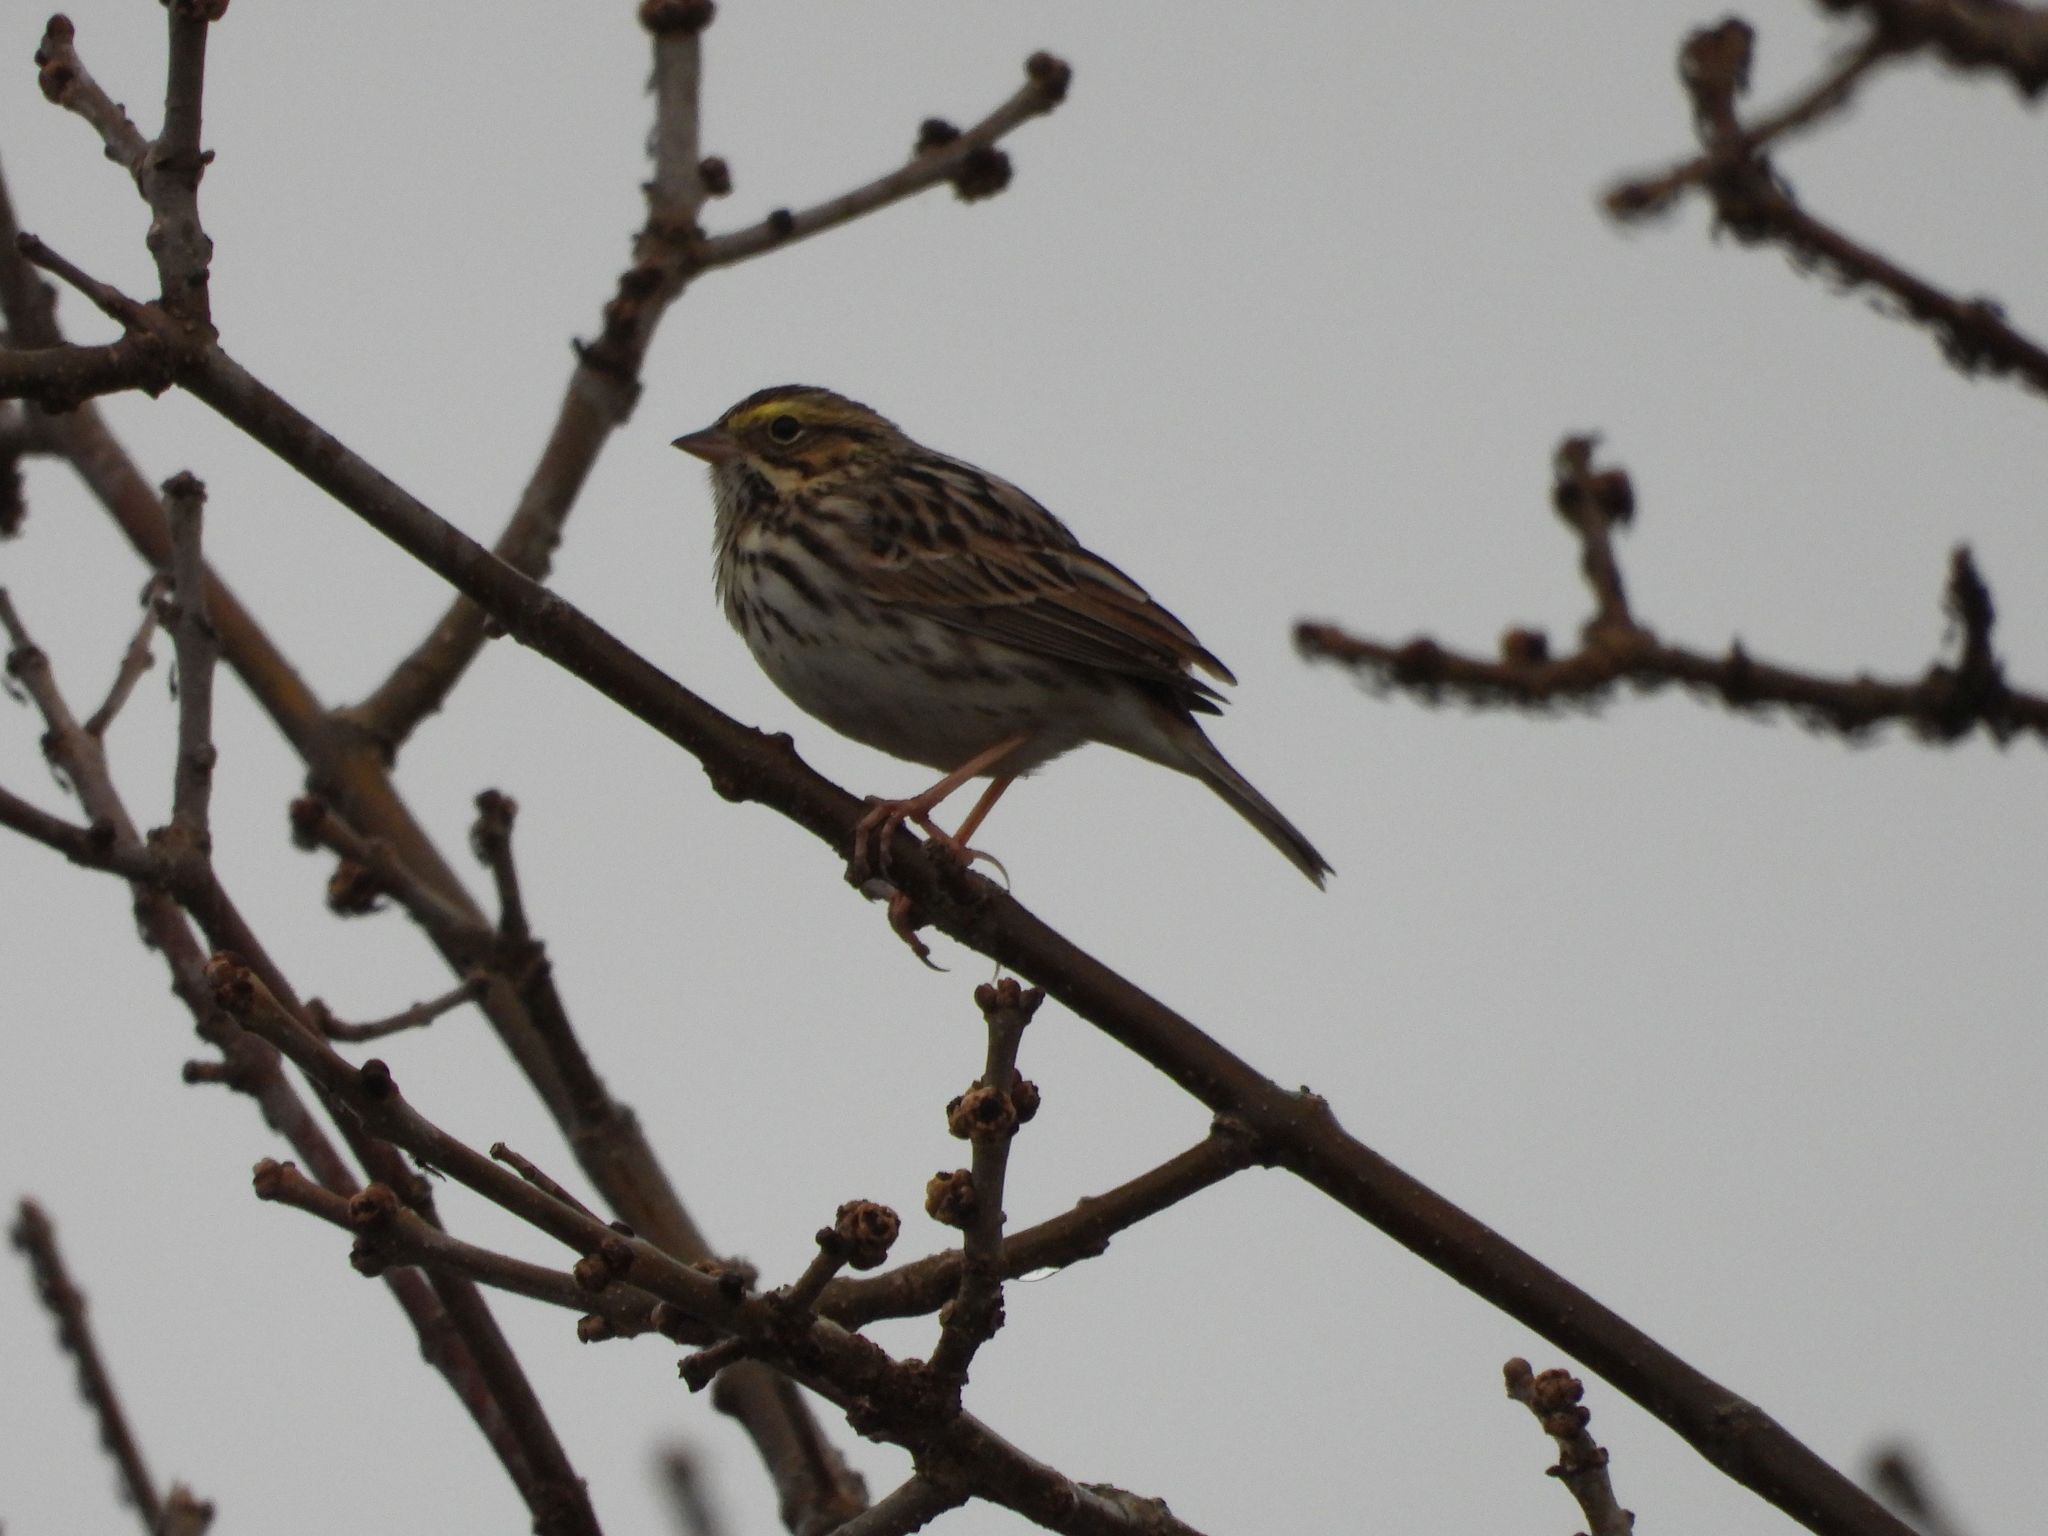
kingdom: Animalia
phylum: Chordata
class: Aves
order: Passeriformes
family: Passerellidae
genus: Passerculus
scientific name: Passerculus sandwichensis
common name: Savannah sparrow
